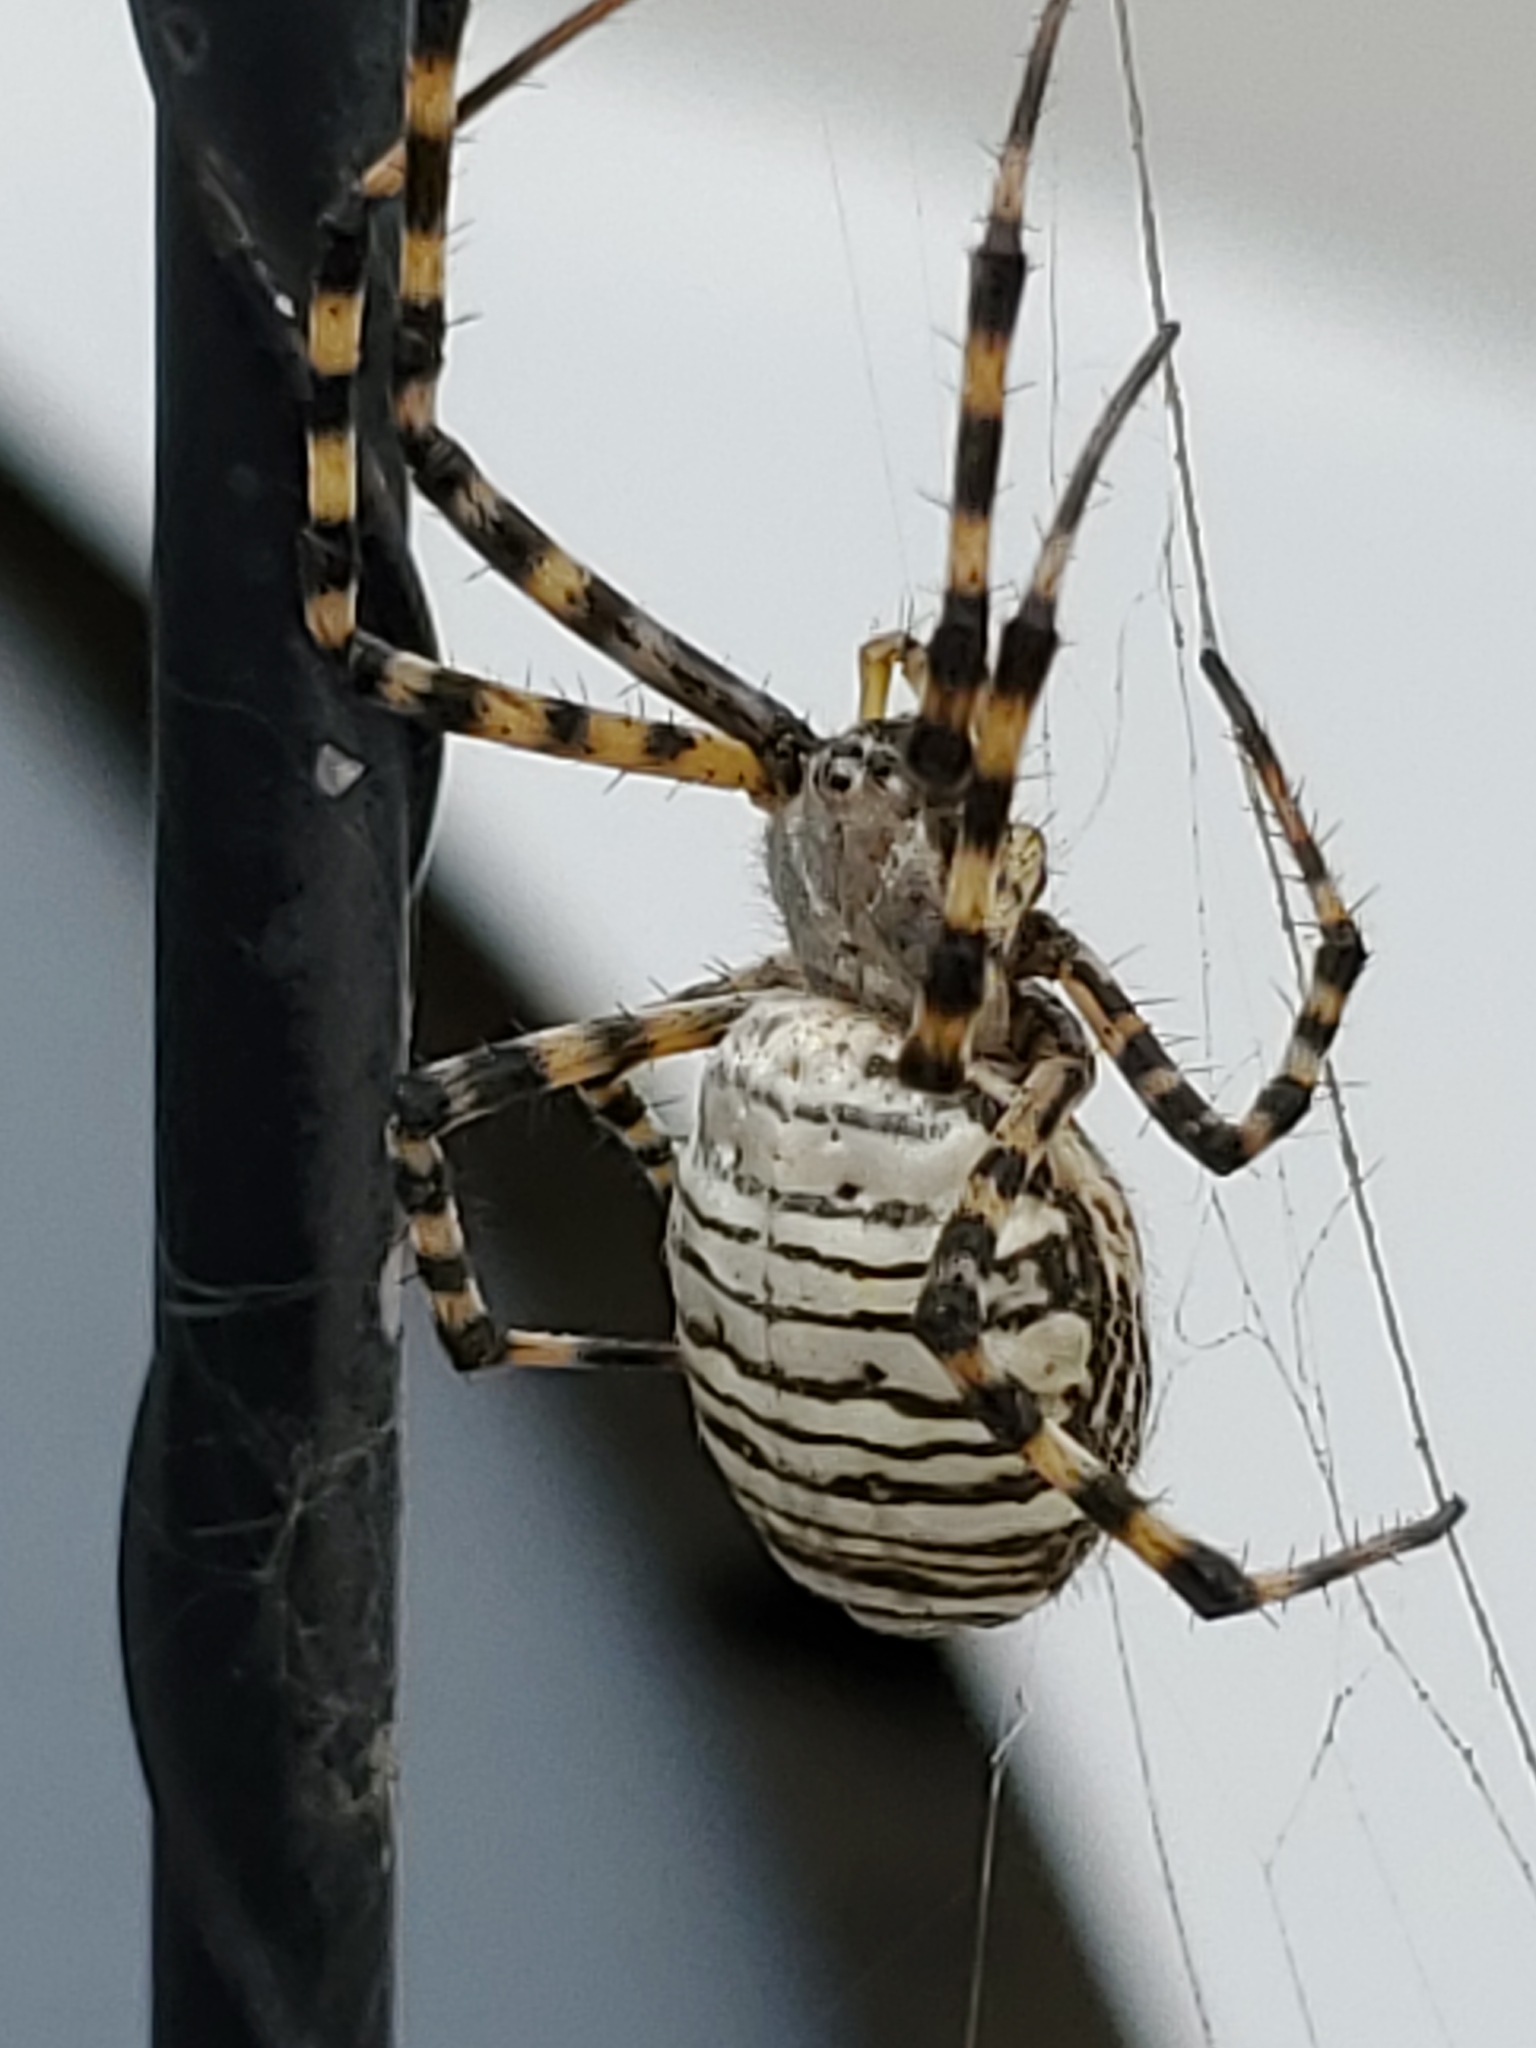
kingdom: Animalia
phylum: Arthropoda
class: Arachnida
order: Araneae
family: Araneidae
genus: Argiope
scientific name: Argiope trifasciata
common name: Banded garden spider
